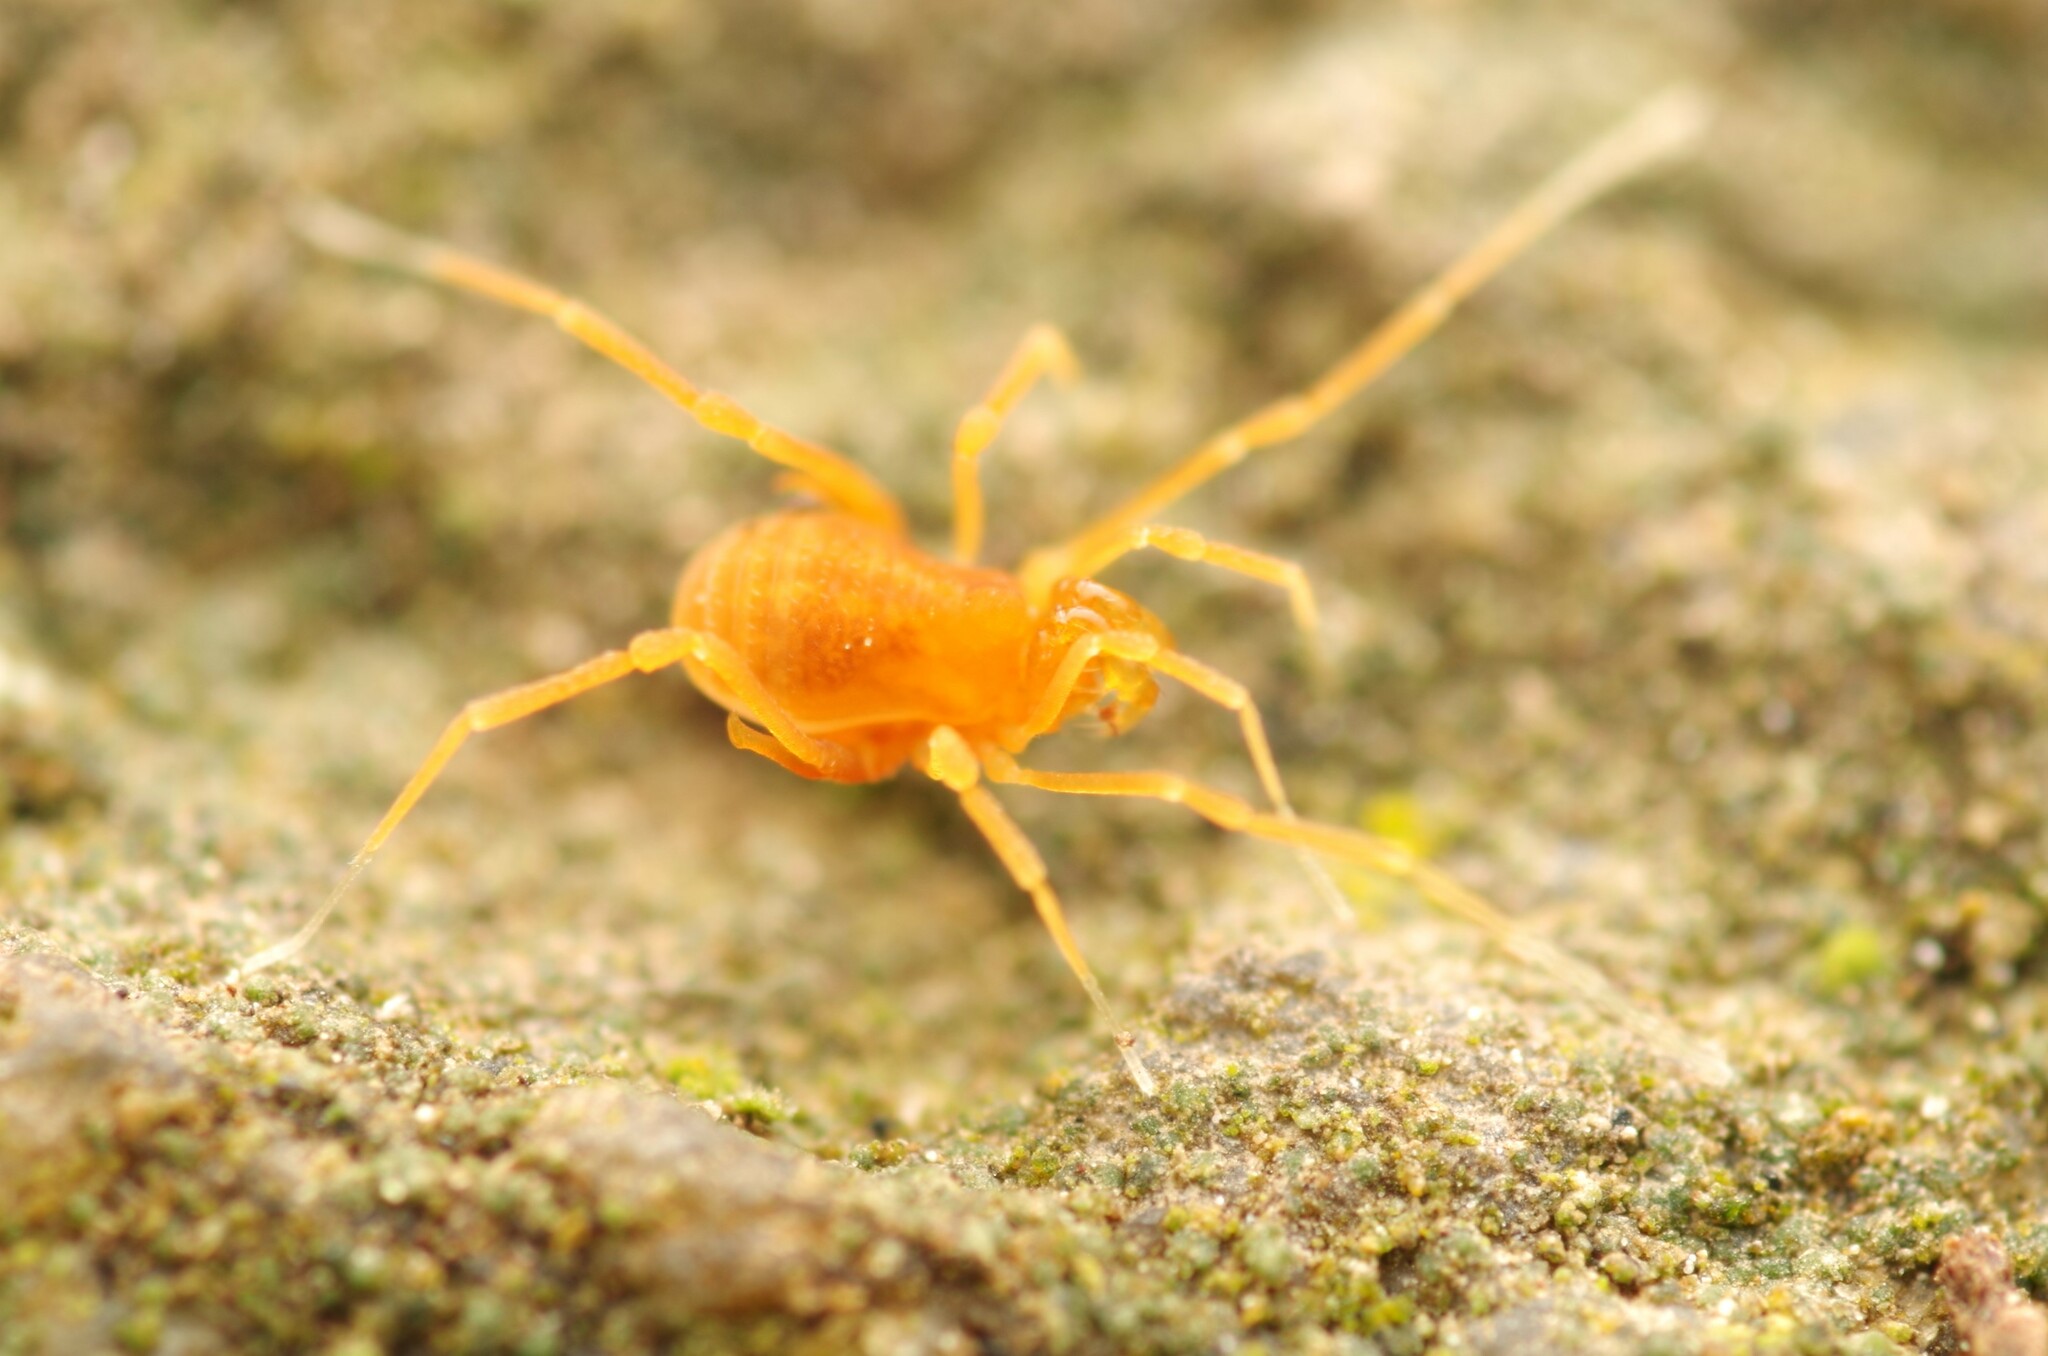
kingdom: Animalia
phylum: Arthropoda
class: Arachnida
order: Opiliones
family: Phalangodidae
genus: Scotolemon
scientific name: Scotolemon doriae
